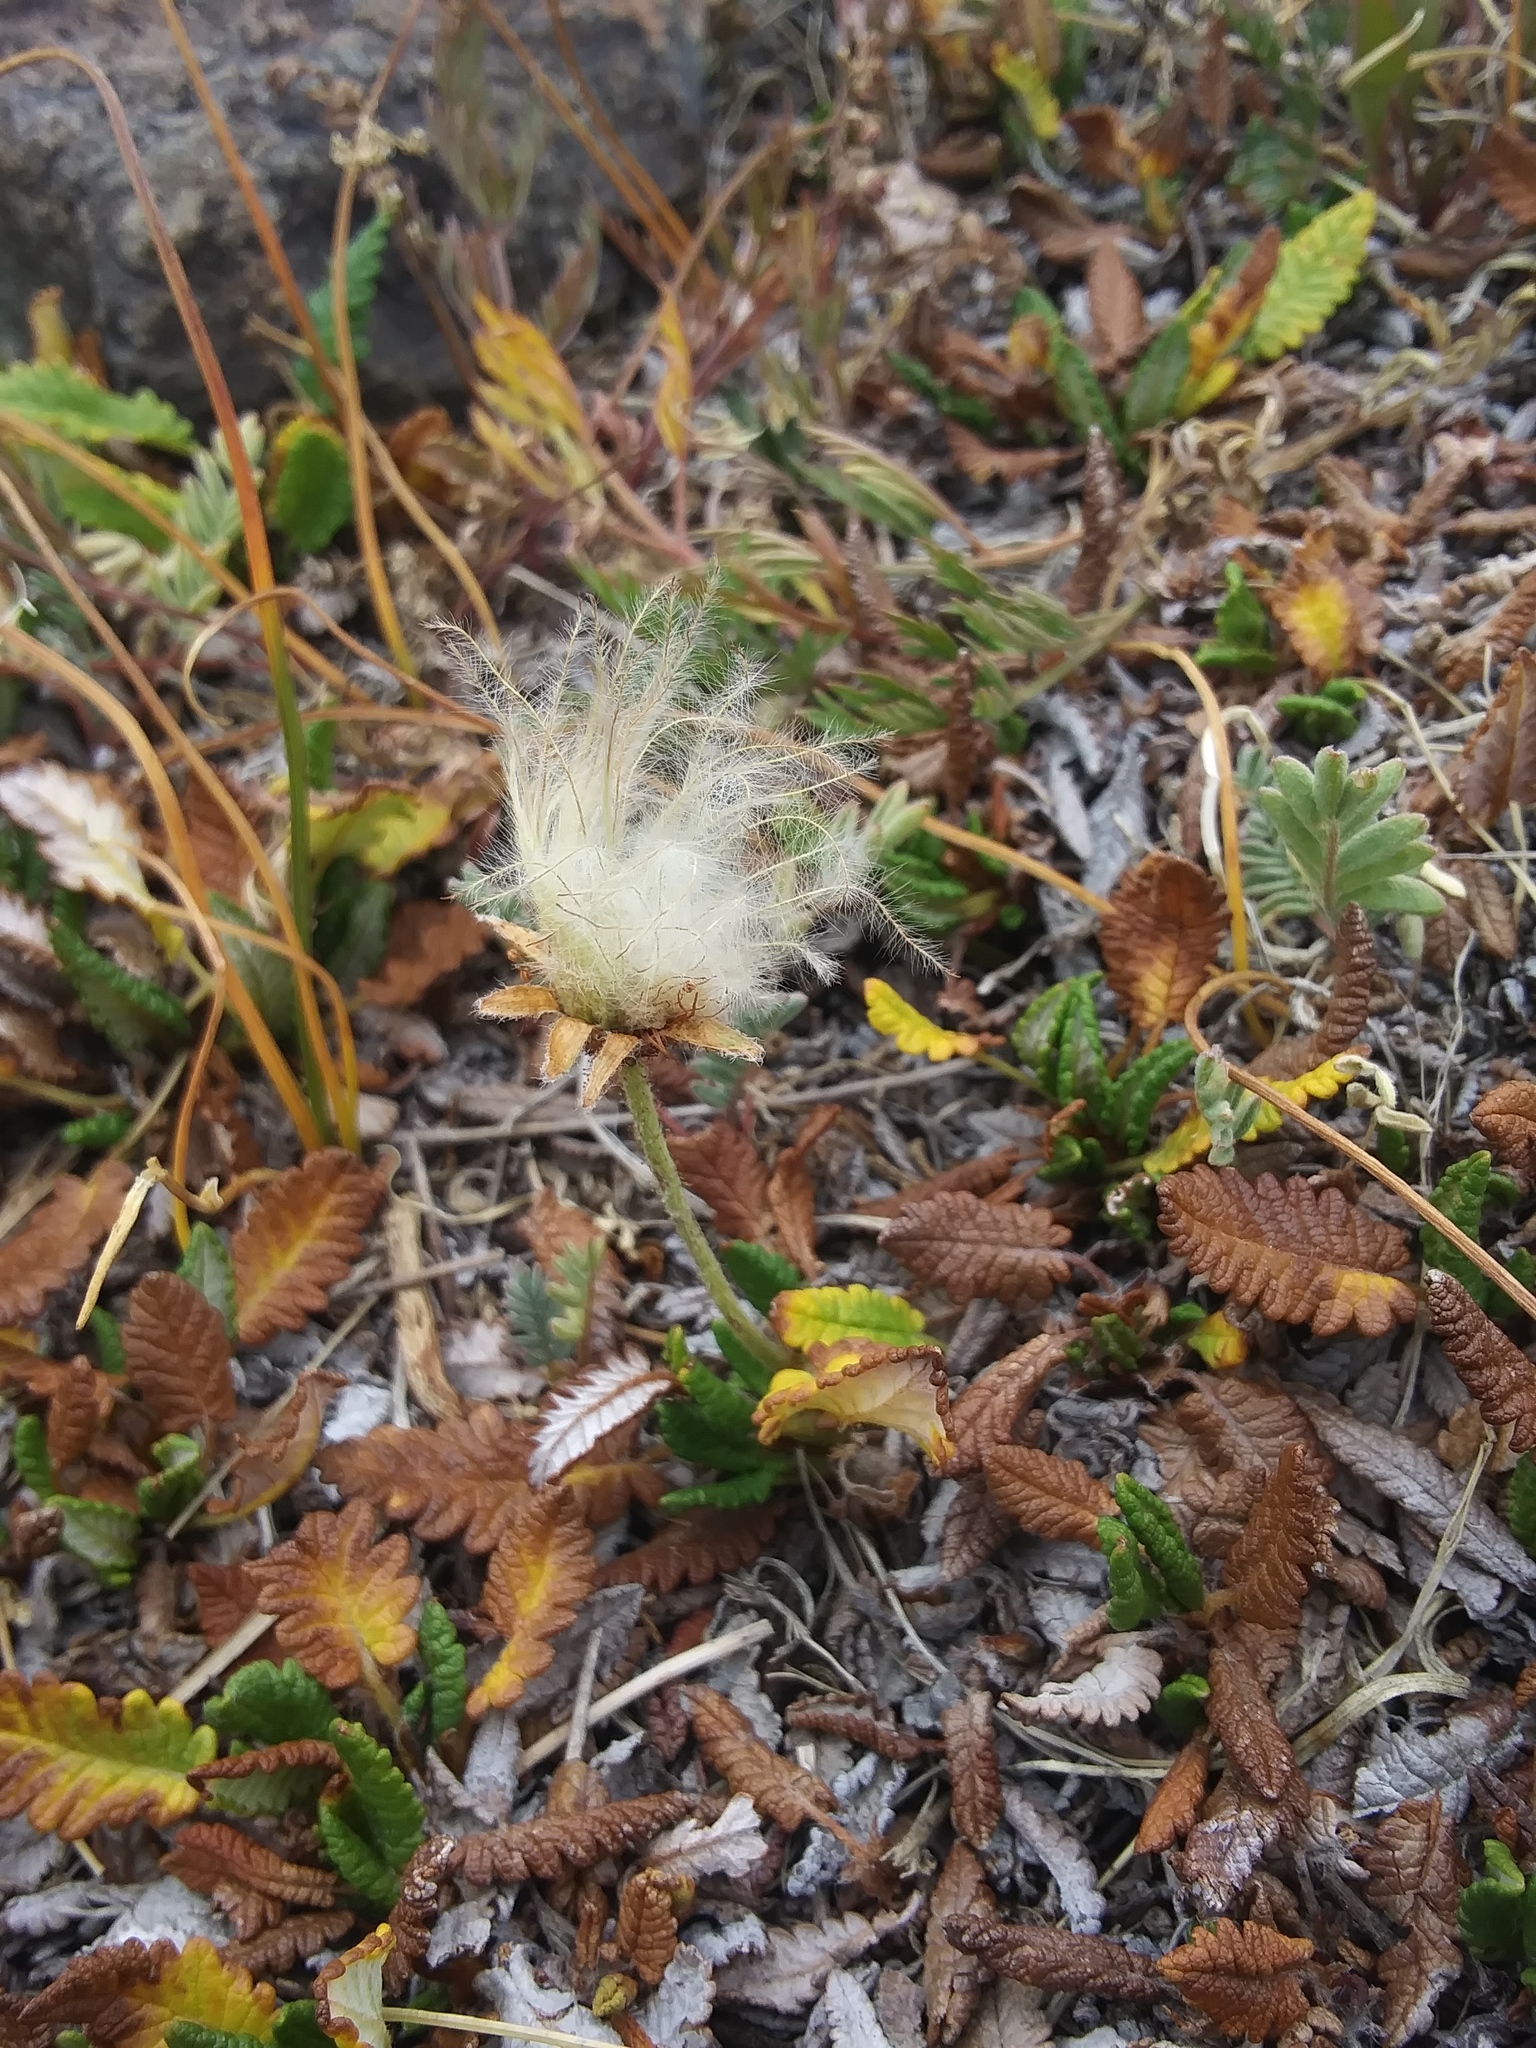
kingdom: Plantae
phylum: Tracheophyta
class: Magnoliopsida
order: Rosales
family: Rosaceae
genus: Dryas
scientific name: Dryas octopetala
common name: Eight-petal mountain-avens
